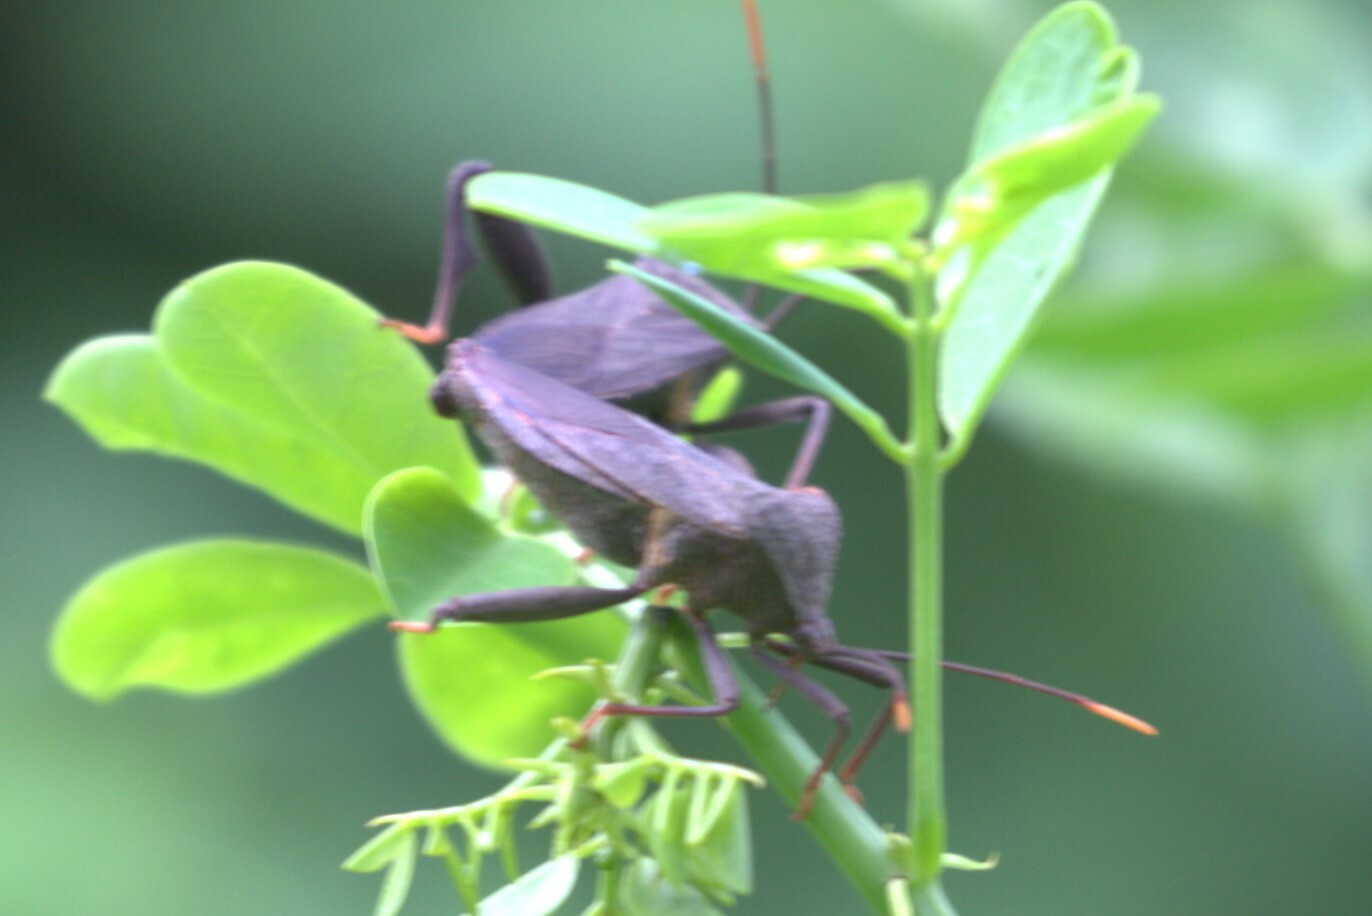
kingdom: Animalia
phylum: Arthropoda
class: Insecta
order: Hemiptera
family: Coreidae
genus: Mictis
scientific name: Mictis caja
